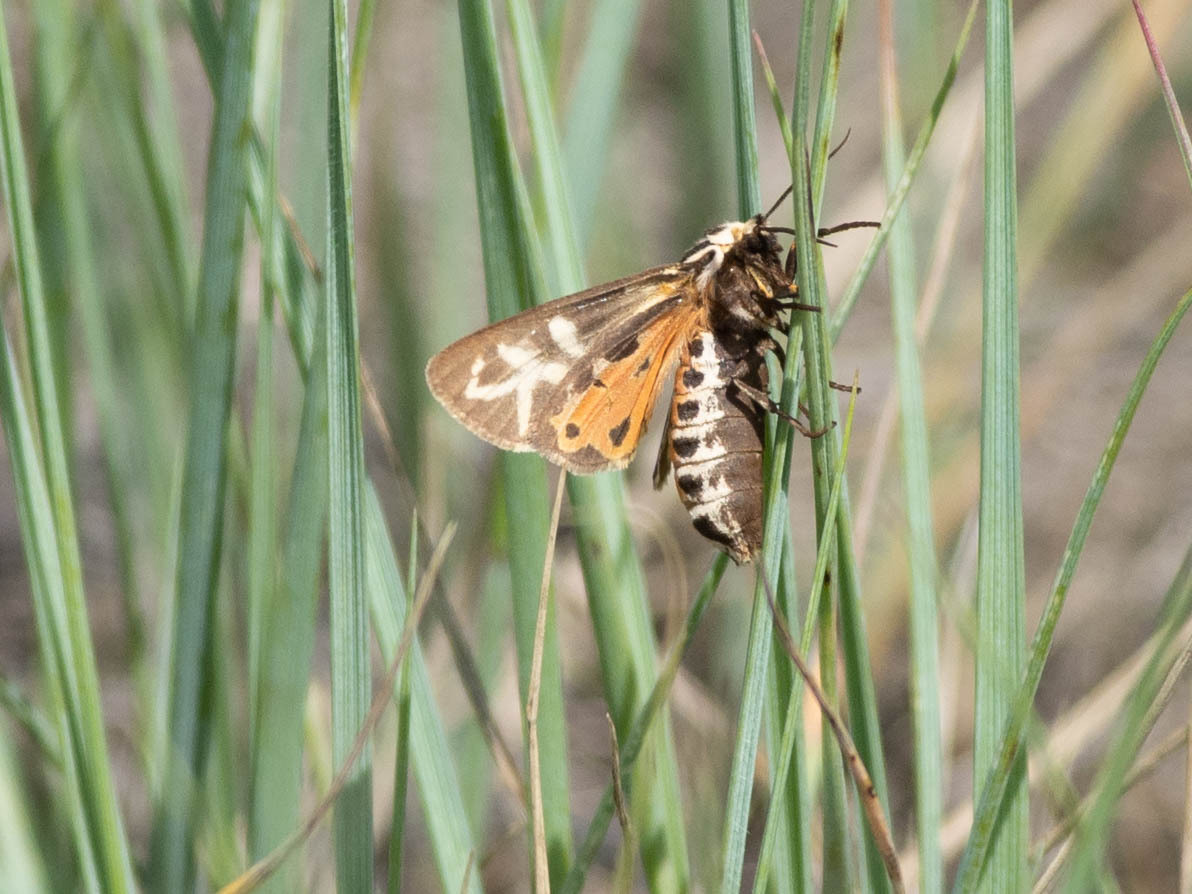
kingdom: Animalia
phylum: Arthropoda
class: Insecta
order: Lepidoptera
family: Erebidae
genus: Apantesis
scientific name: Apantesis
